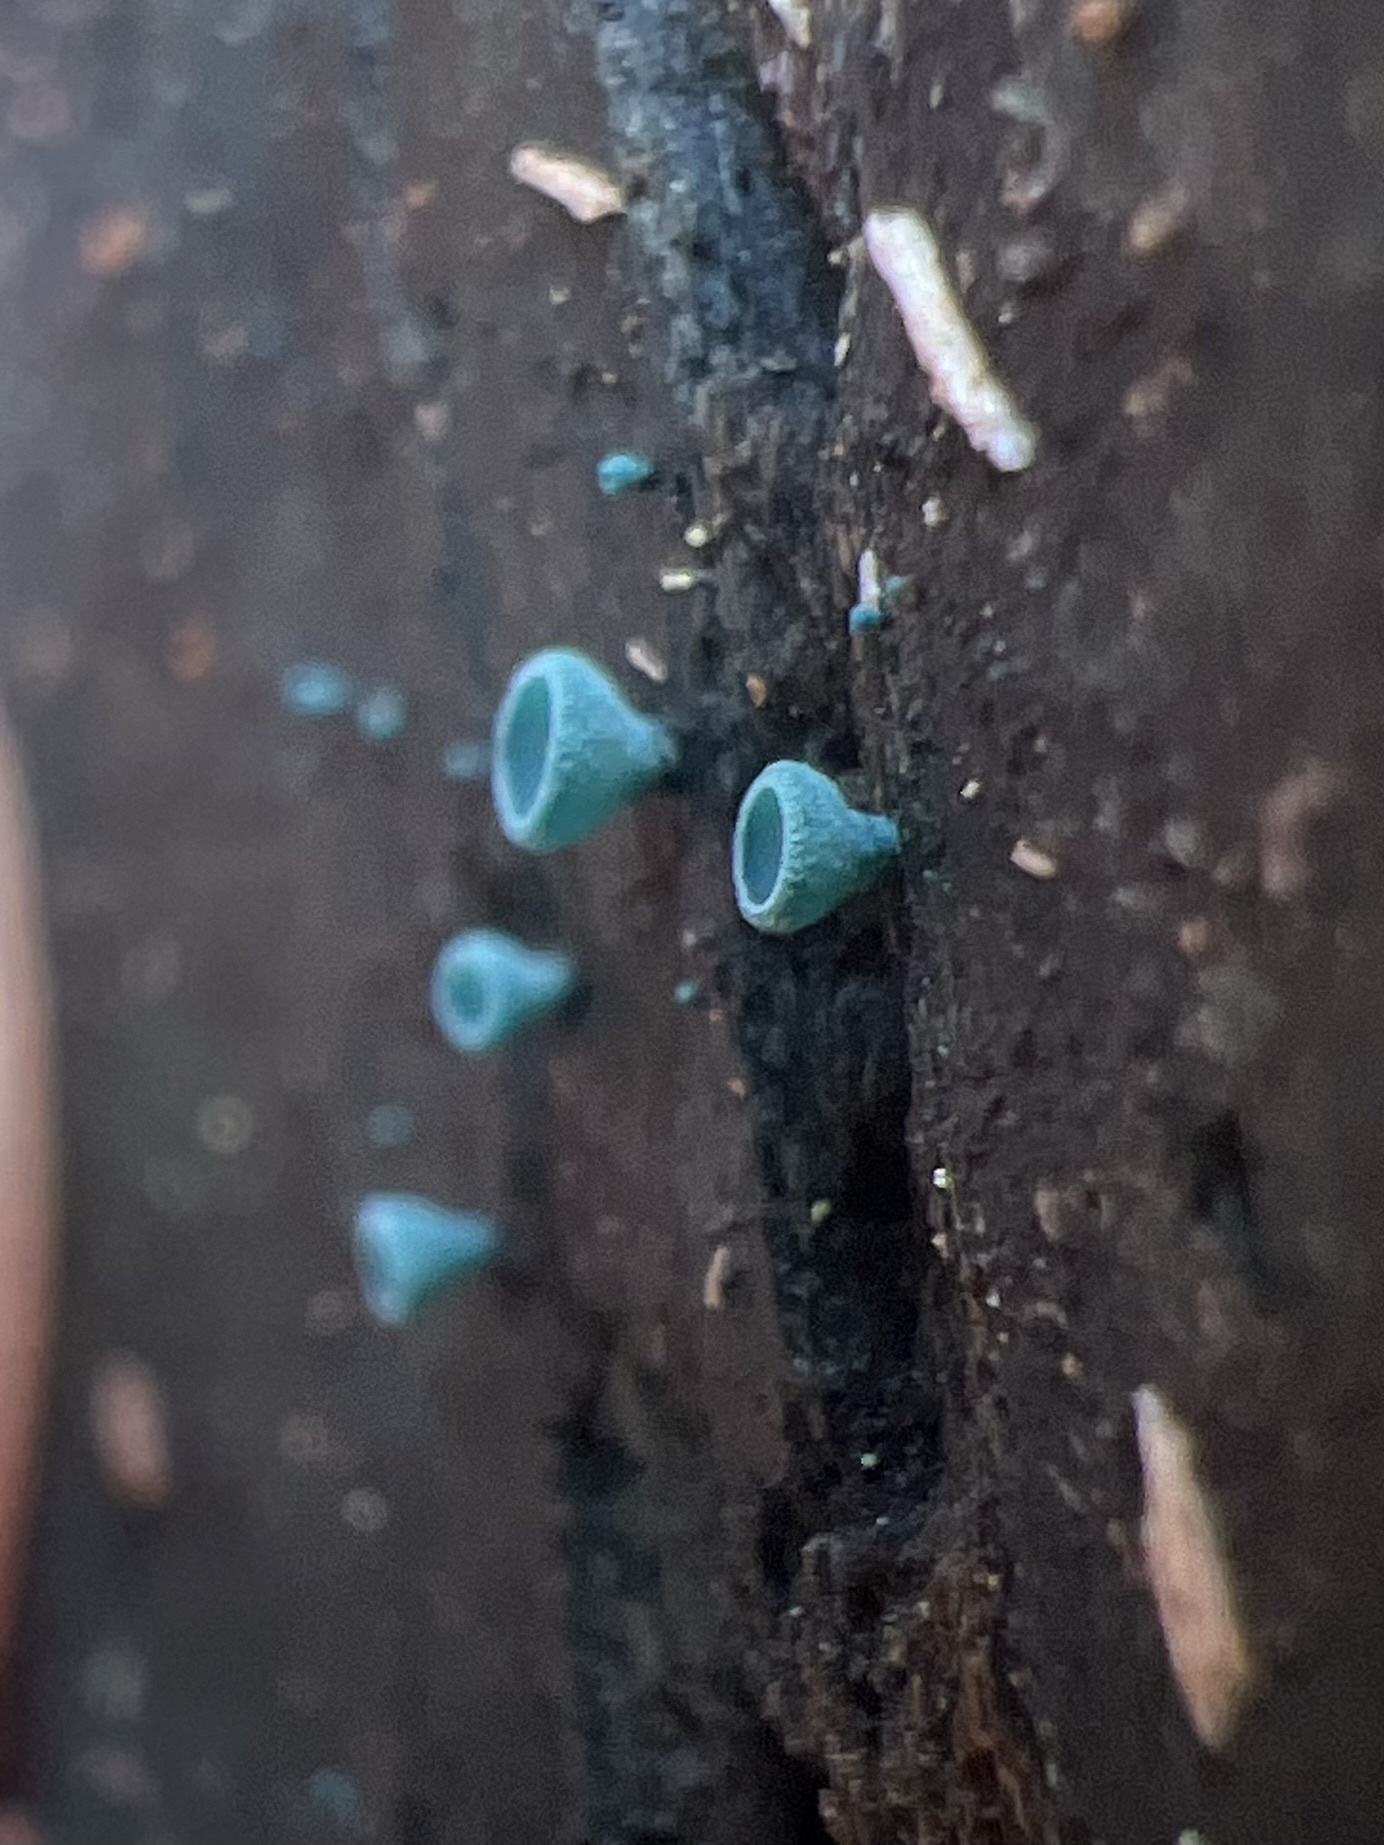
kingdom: Fungi
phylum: Ascomycota
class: Leotiomycetes
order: Helotiales
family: Chlorociboriaceae
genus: Chlorociboria
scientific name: Chlorociboria aeruginosa
